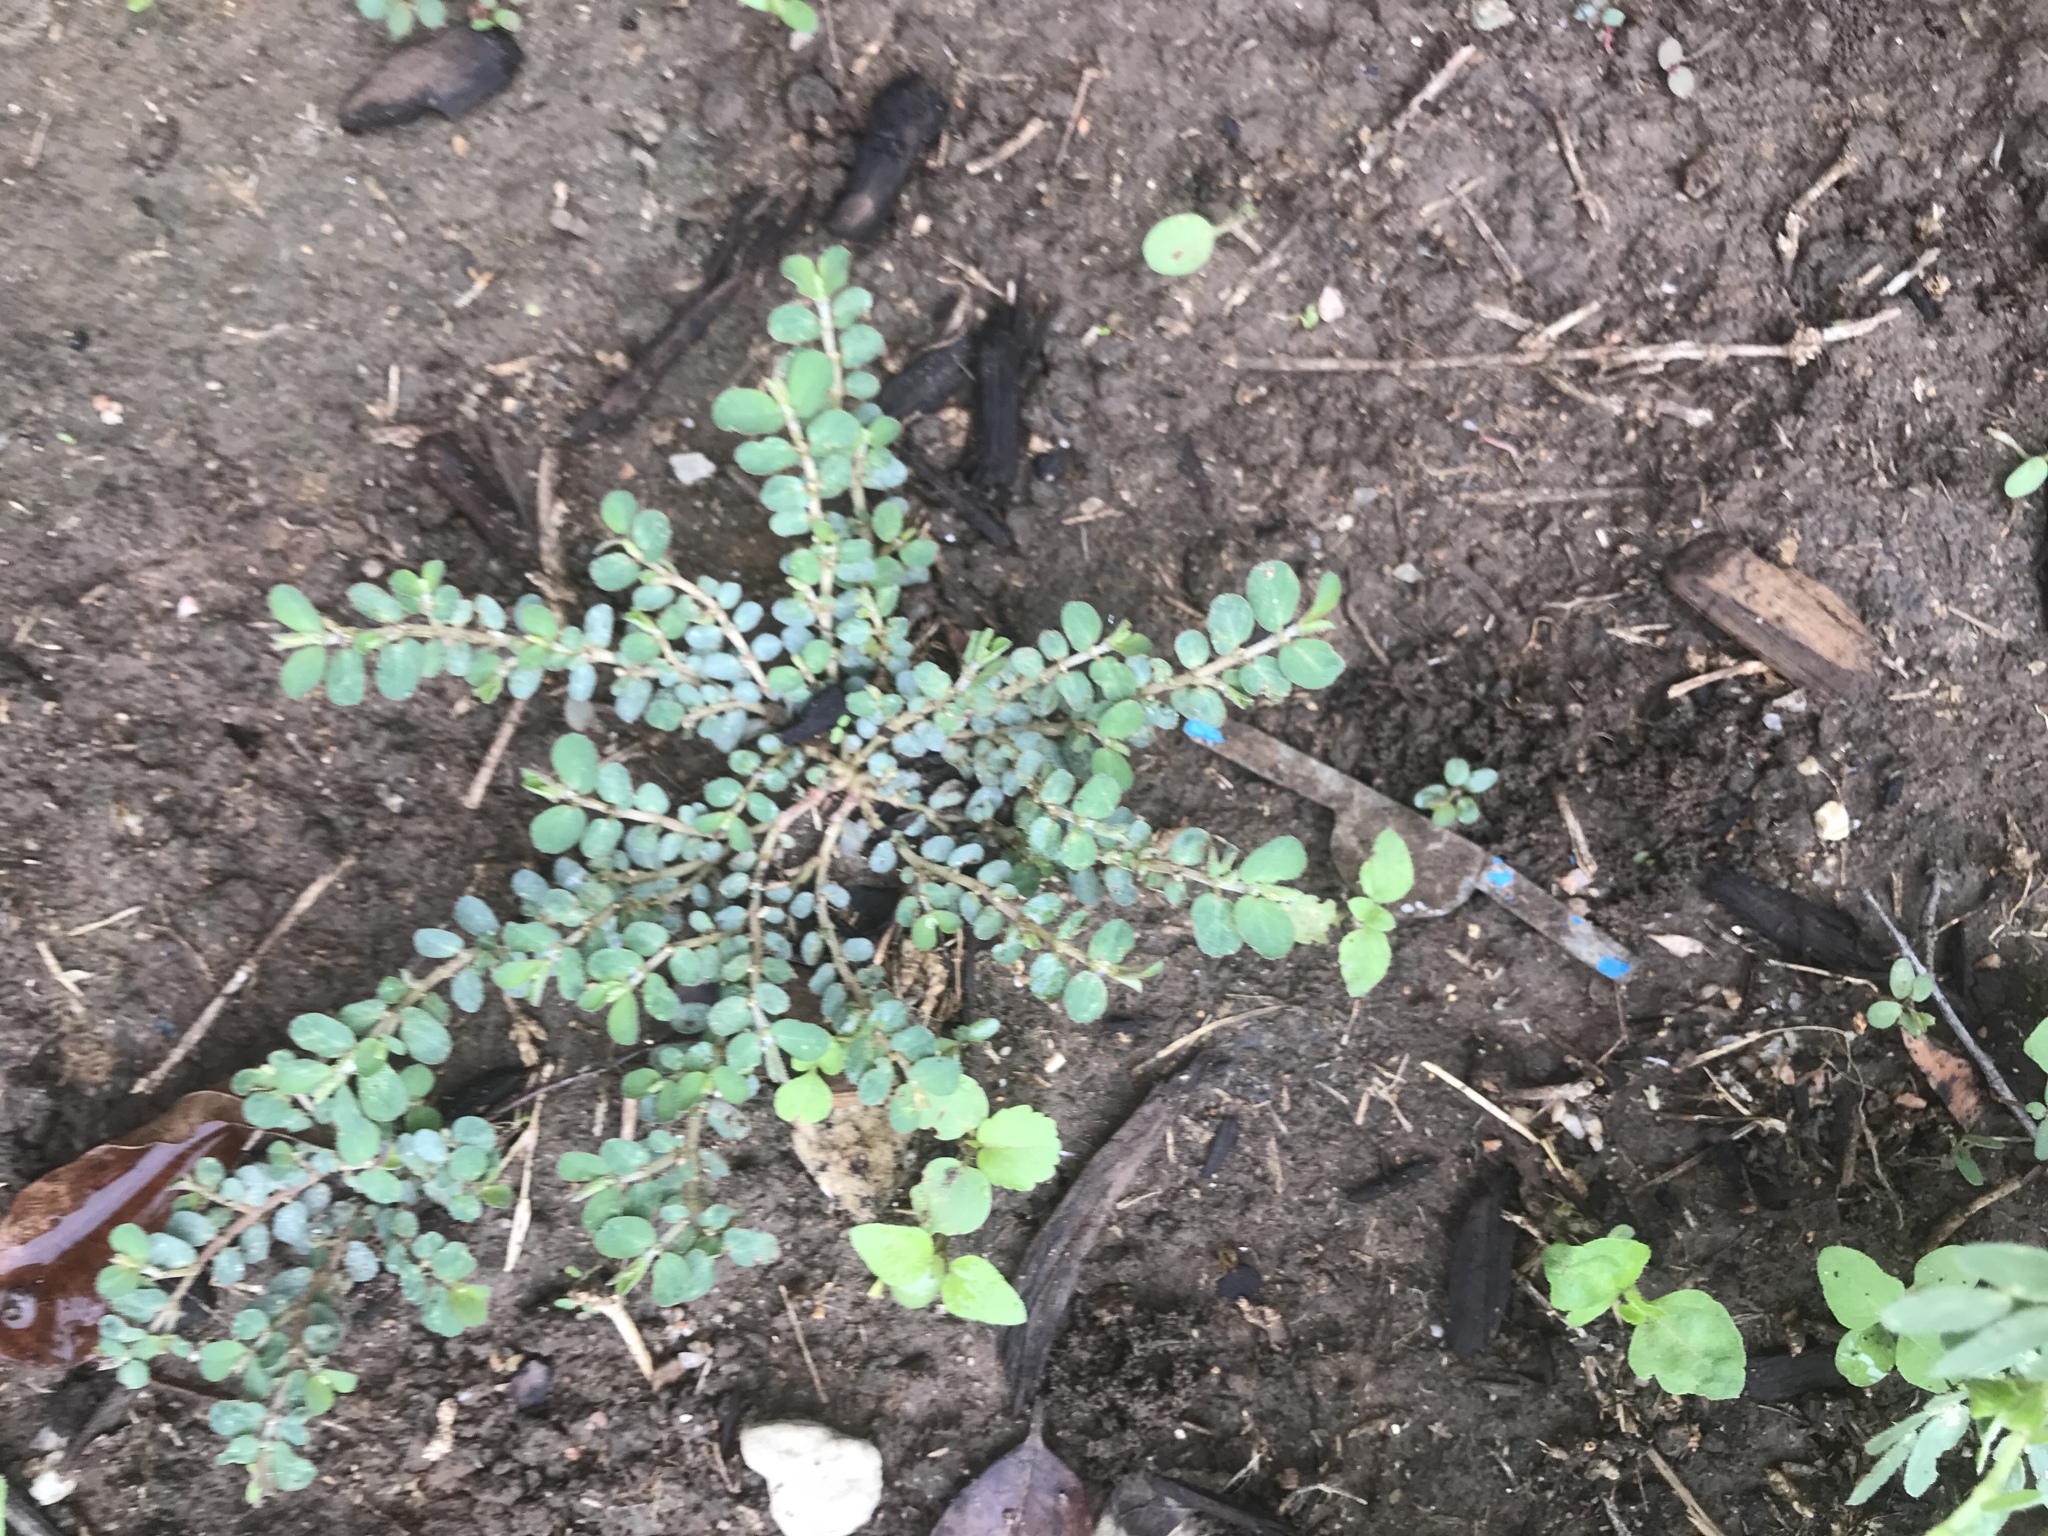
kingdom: Plantae
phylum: Tracheophyta
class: Magnoliopsida
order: Malpighiales
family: Euphorbiaceae
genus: Euphorbia
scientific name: Euphorbia prostrata
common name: Prostrate sandmat
